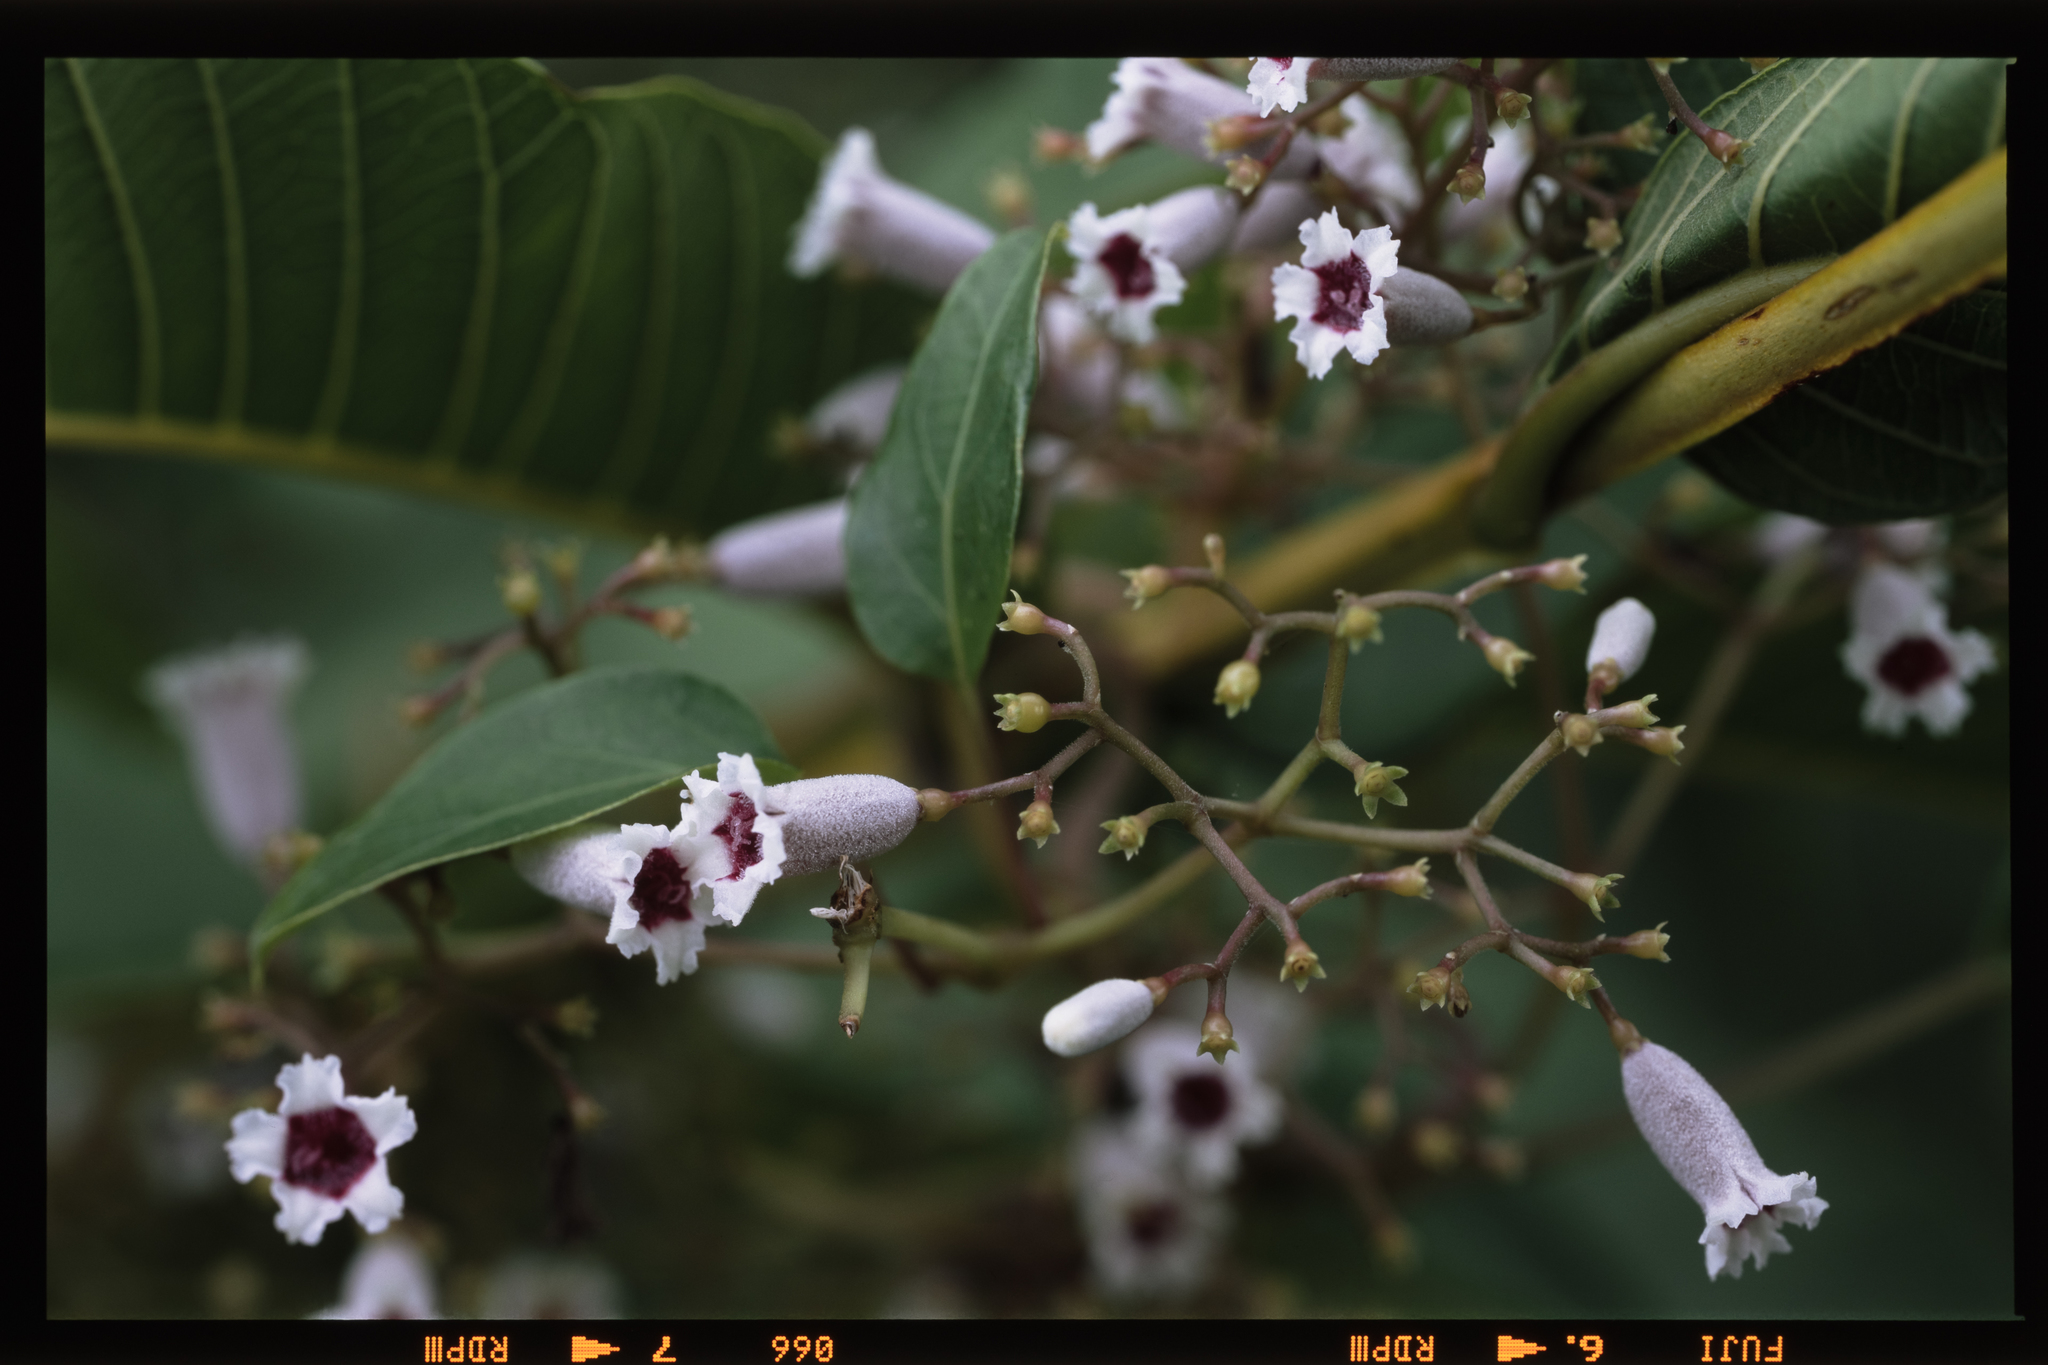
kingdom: Plantae
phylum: Tracheophyta
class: Magnoliopsida
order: Gentianales
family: Rubiaceae
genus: Paederia
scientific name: Paederia foetida
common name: Stinkvine
